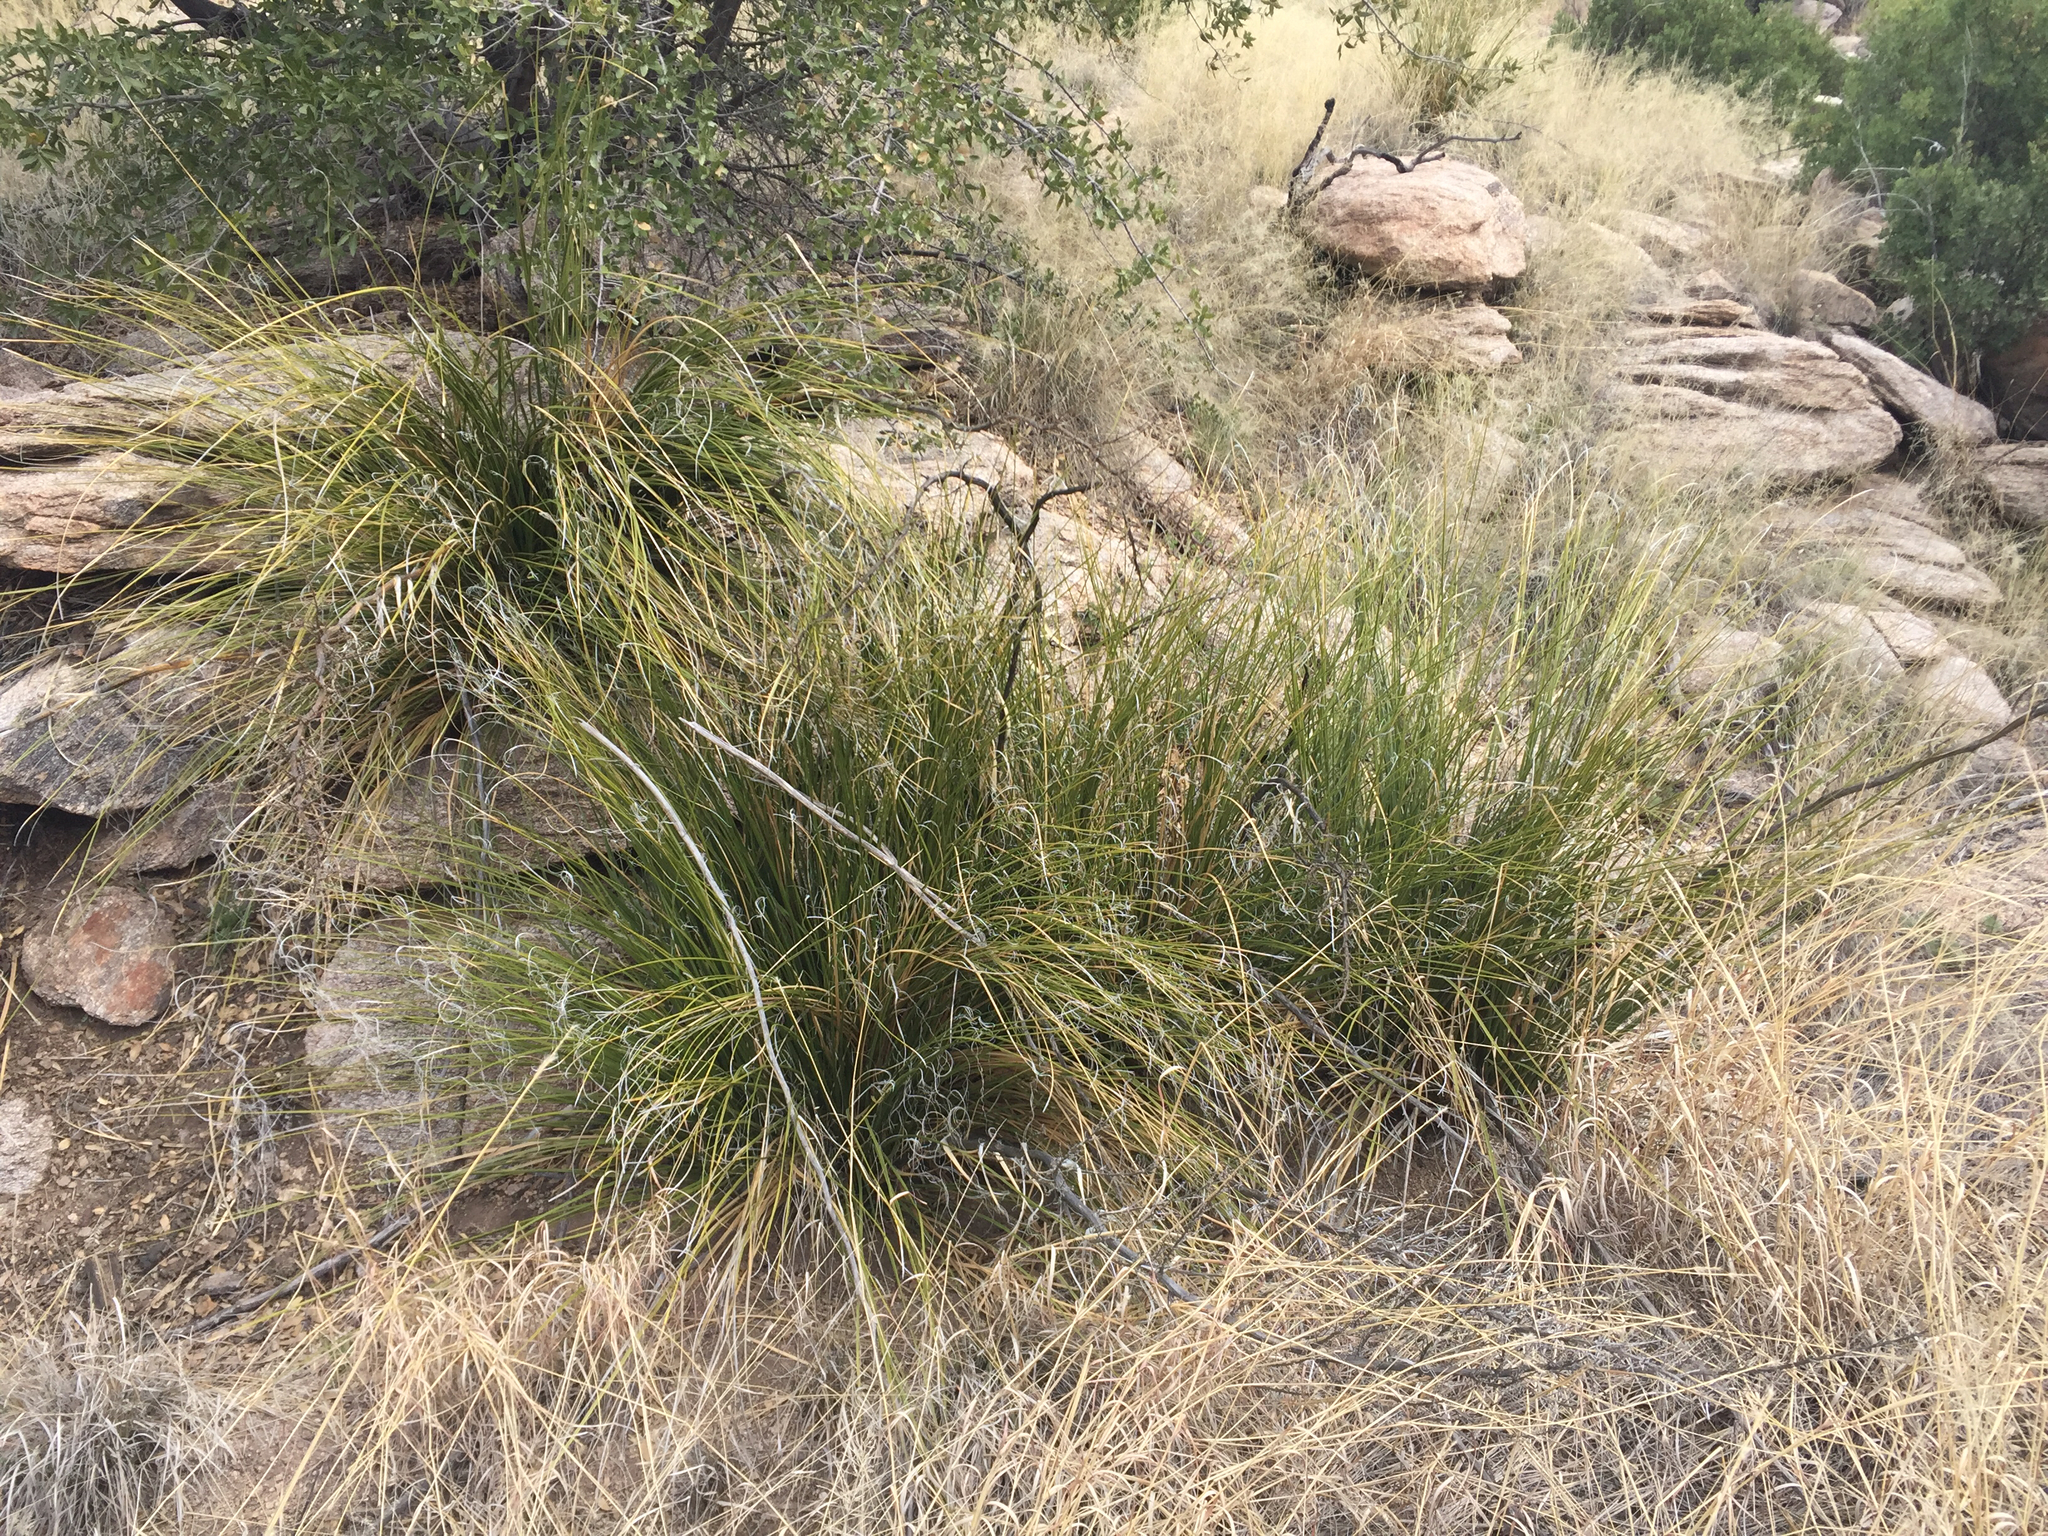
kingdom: Plantae
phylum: Tracheophyta
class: Liliopsida
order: Asparagales
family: Asparagaceae
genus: Nolina
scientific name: Nolina microcarpa
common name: Bear-grass
